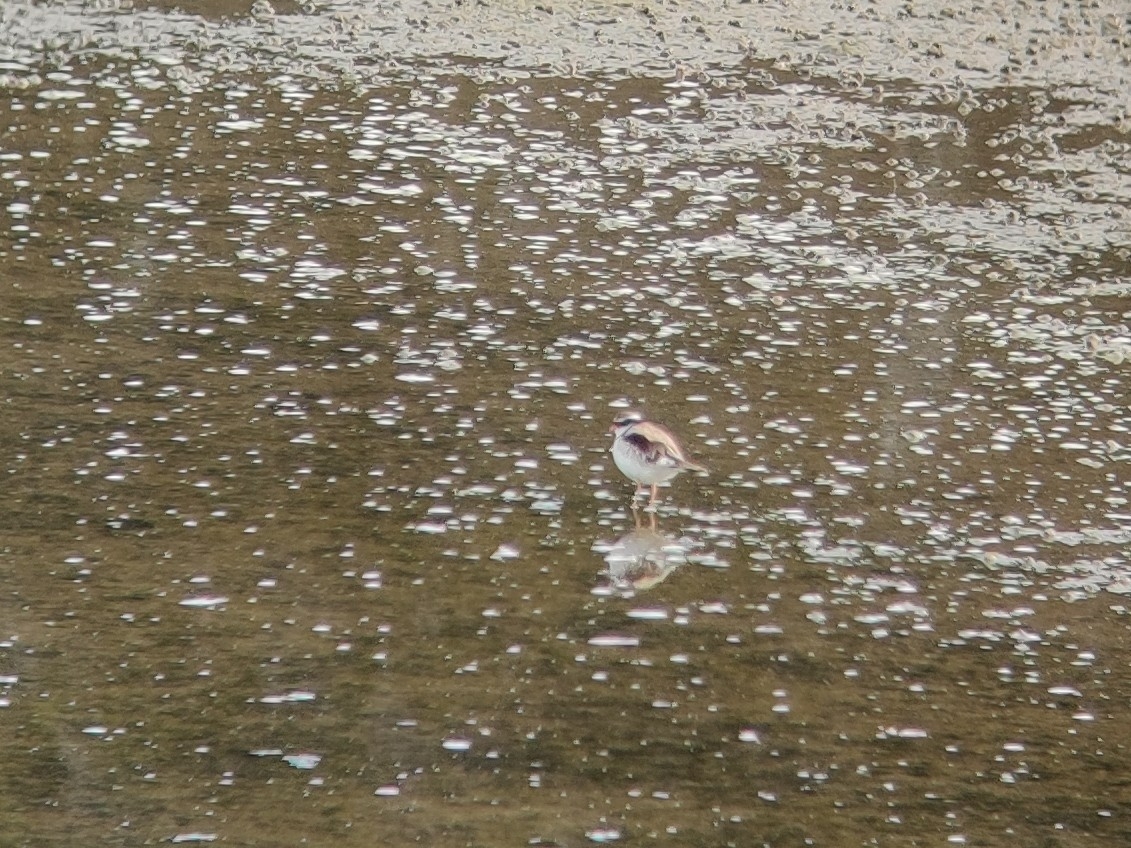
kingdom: Animalia
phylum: Chordata
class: Aves
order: Charadriiformes
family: Charadriidae
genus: Elseyornis
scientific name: Elseyornis melanops
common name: Black-fronted dotterel
